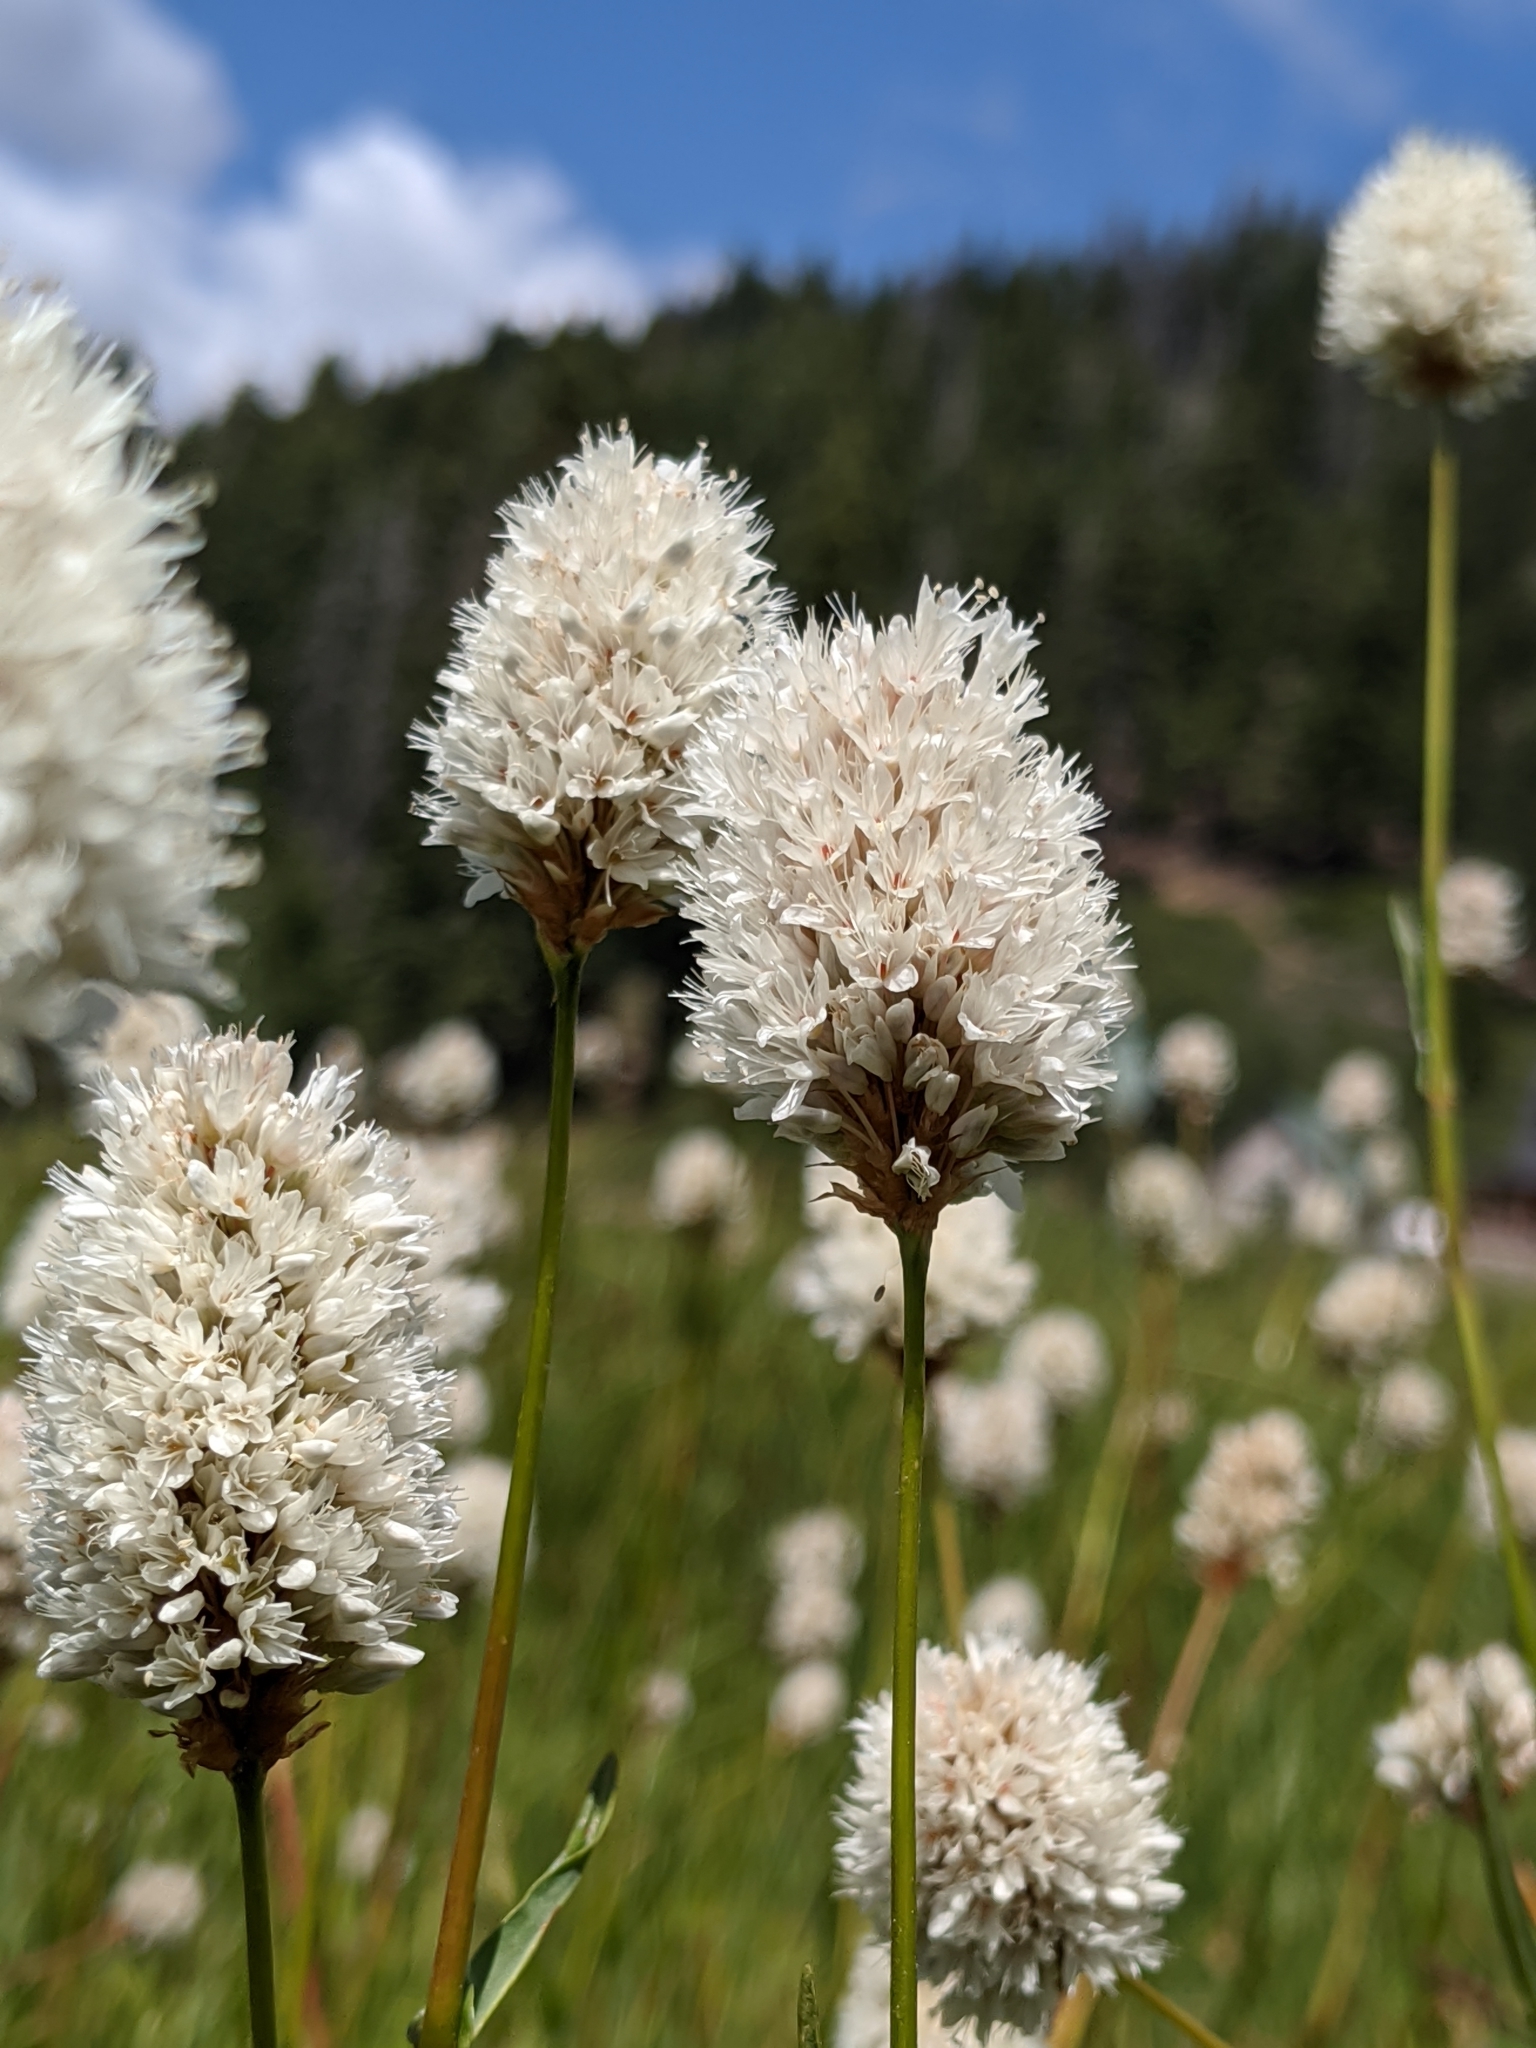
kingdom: Plantae
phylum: Tracheophyta
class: Magnoliopsida
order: Caryophyllales
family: Polygonaceae
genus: Bistorta
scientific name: Bistorta bistortoides
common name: American bistort
